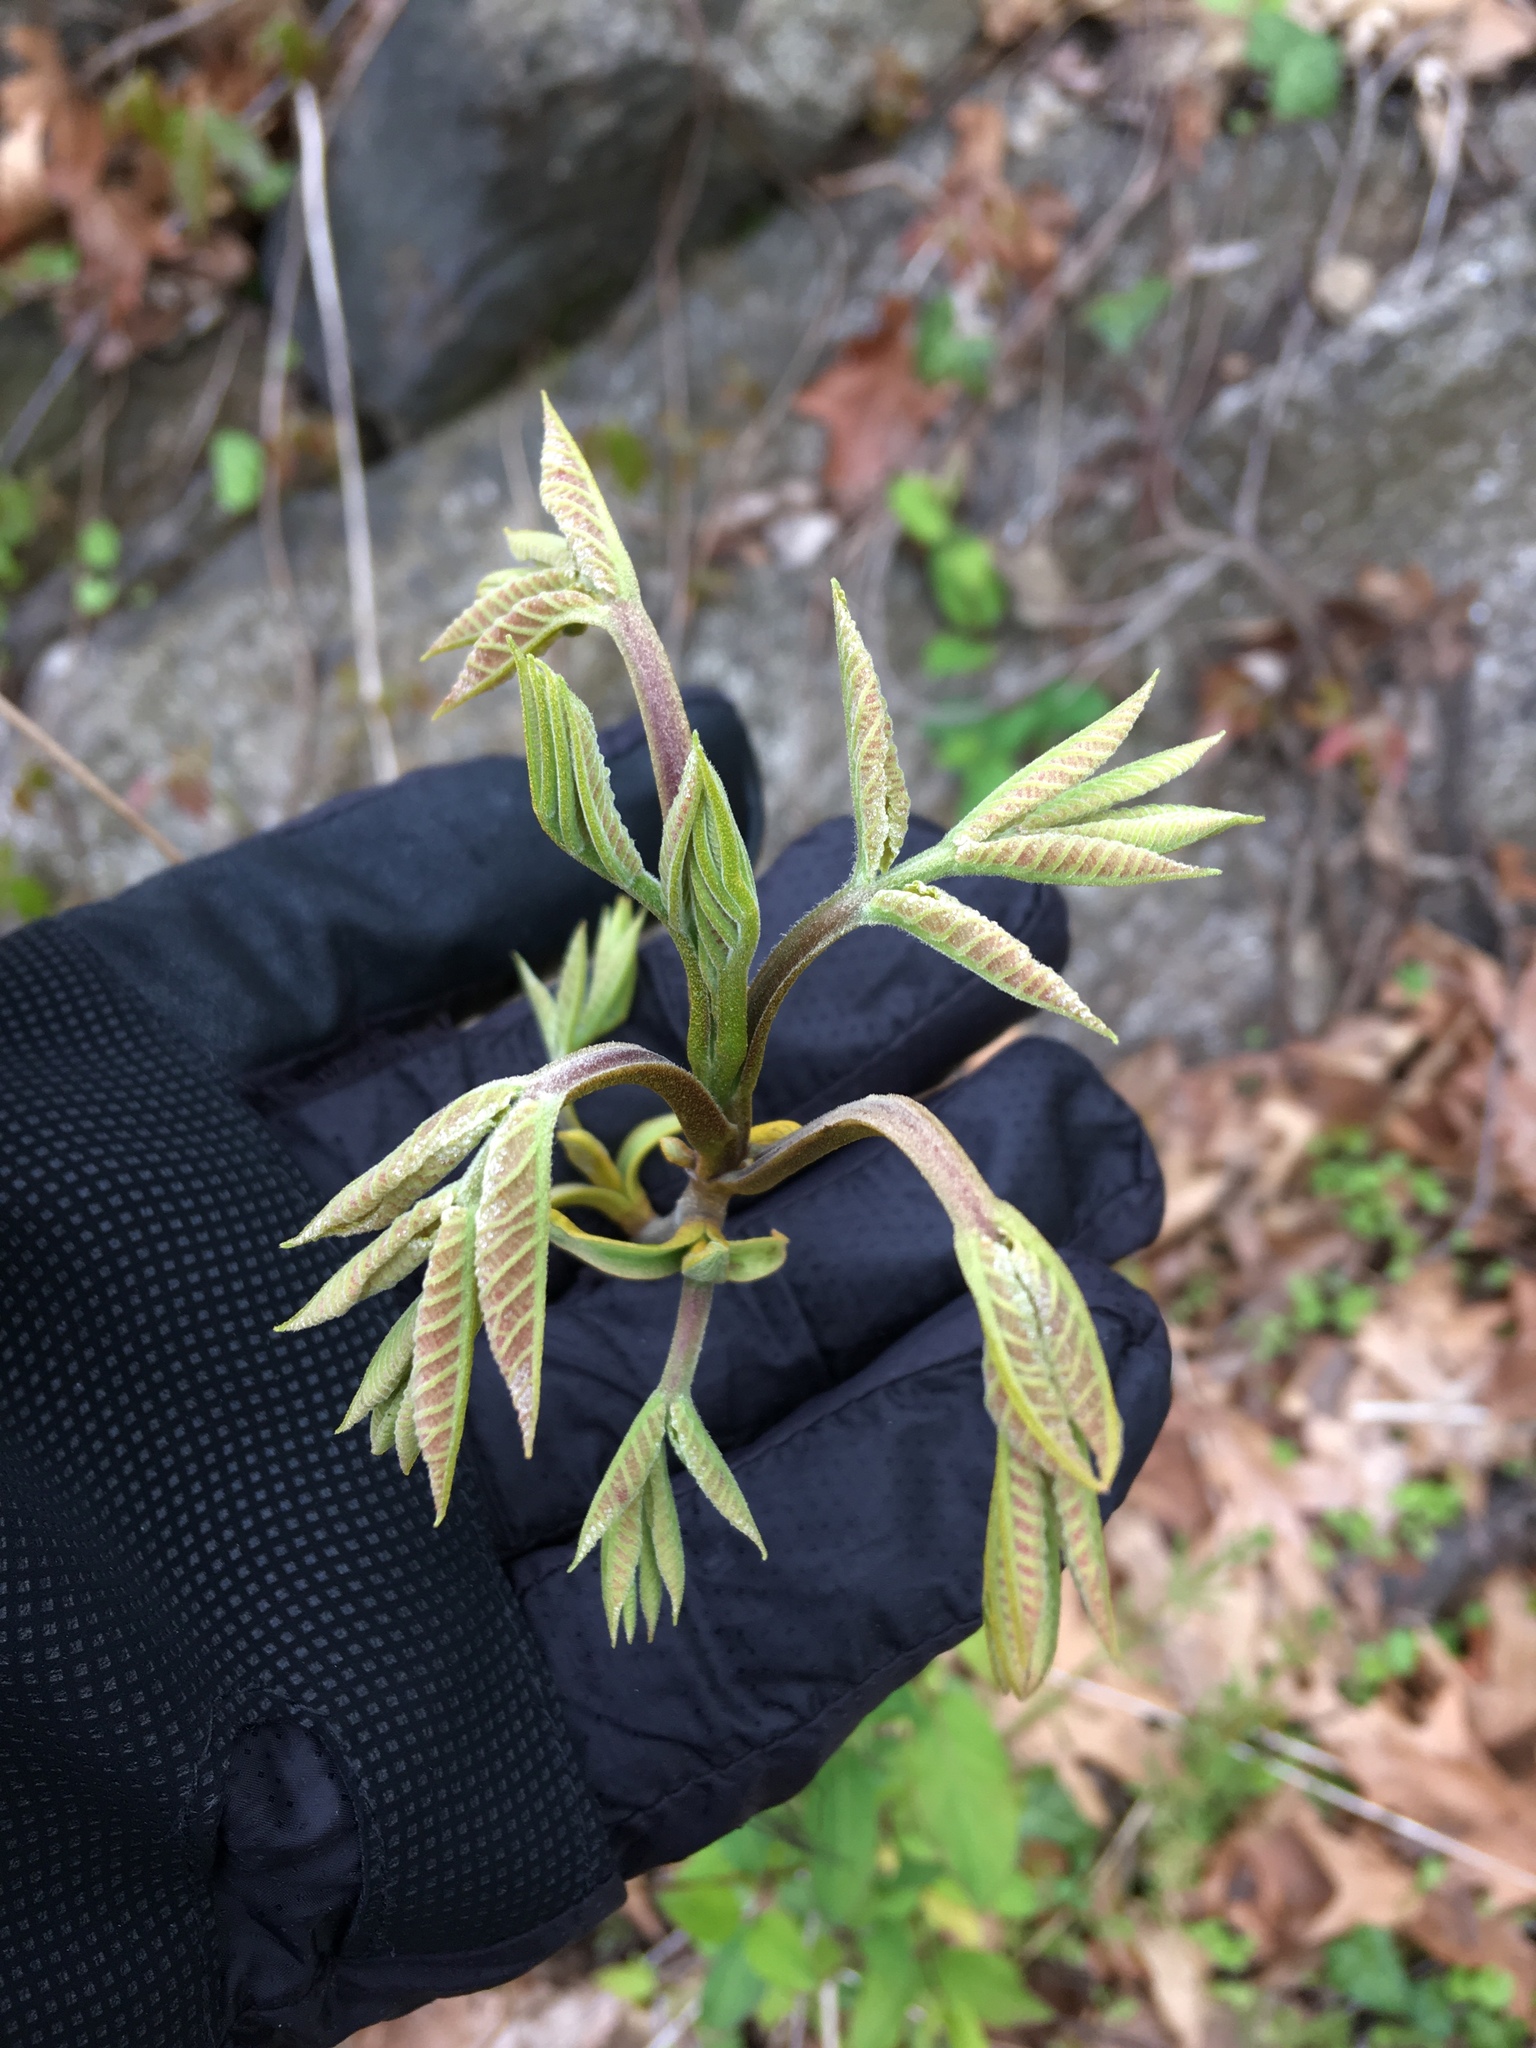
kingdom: Plantae
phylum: Tracheophyta
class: Magnoliopsida
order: Fagales
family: Juglandaceae
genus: Carya
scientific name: Carya cordiformis
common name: Bitternut hickory
